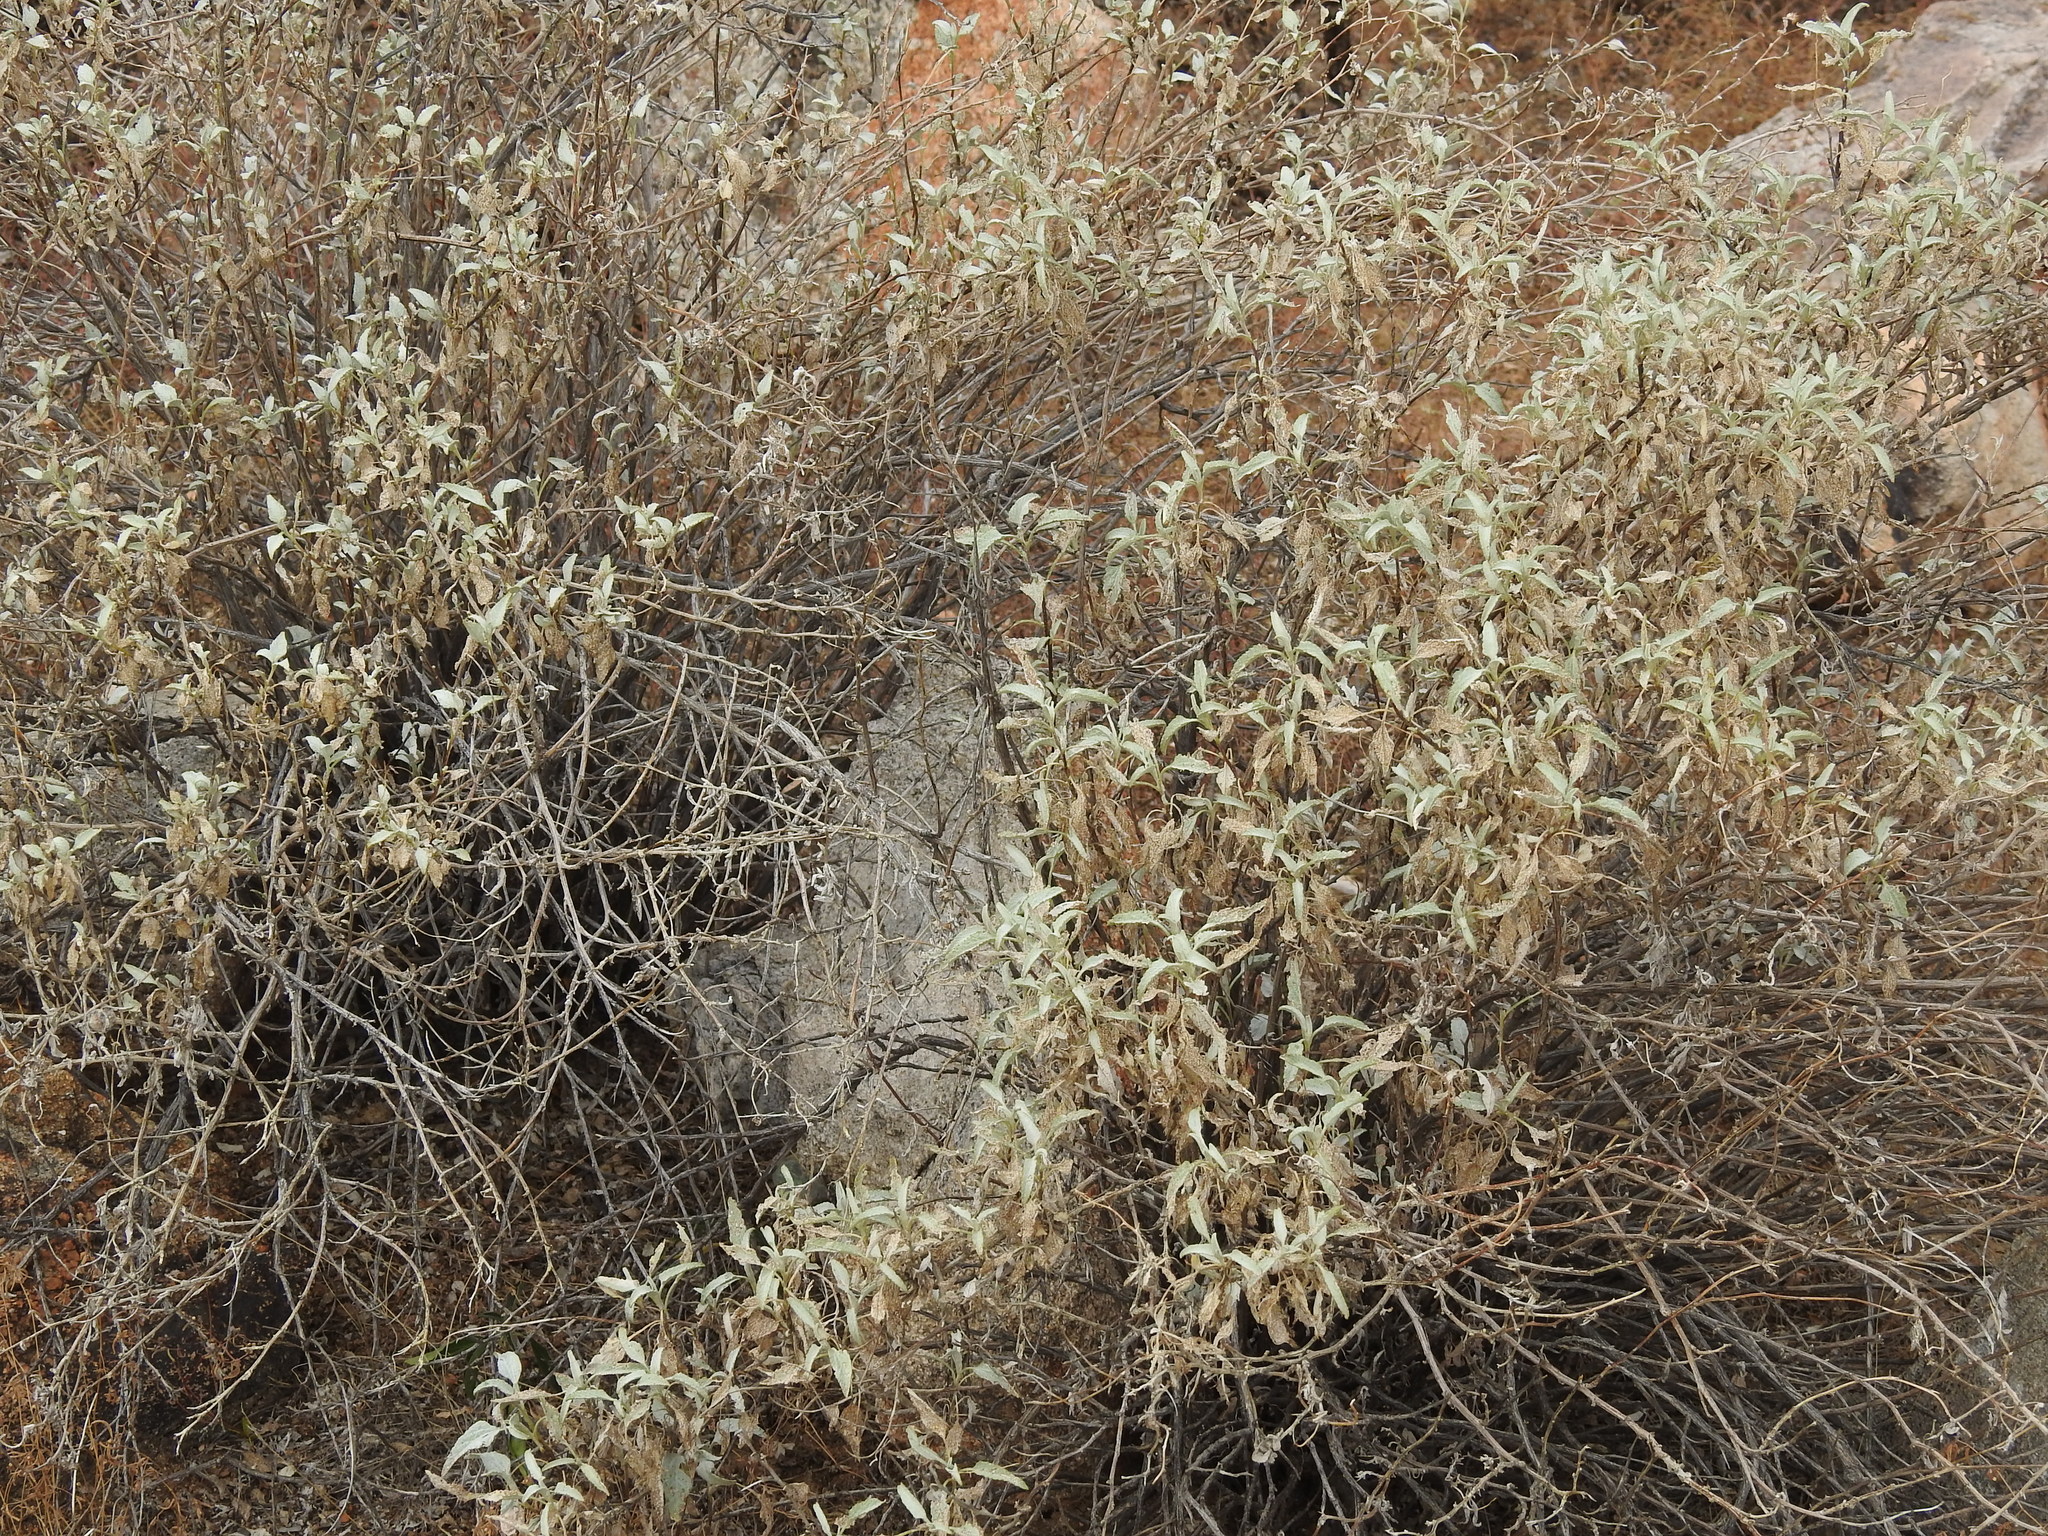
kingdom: Plantae
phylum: Tracheophyta
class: Magnoliopsida
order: Asterales
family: Asteraceae
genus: Ambrosia
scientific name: Ambrosia deltoidea
